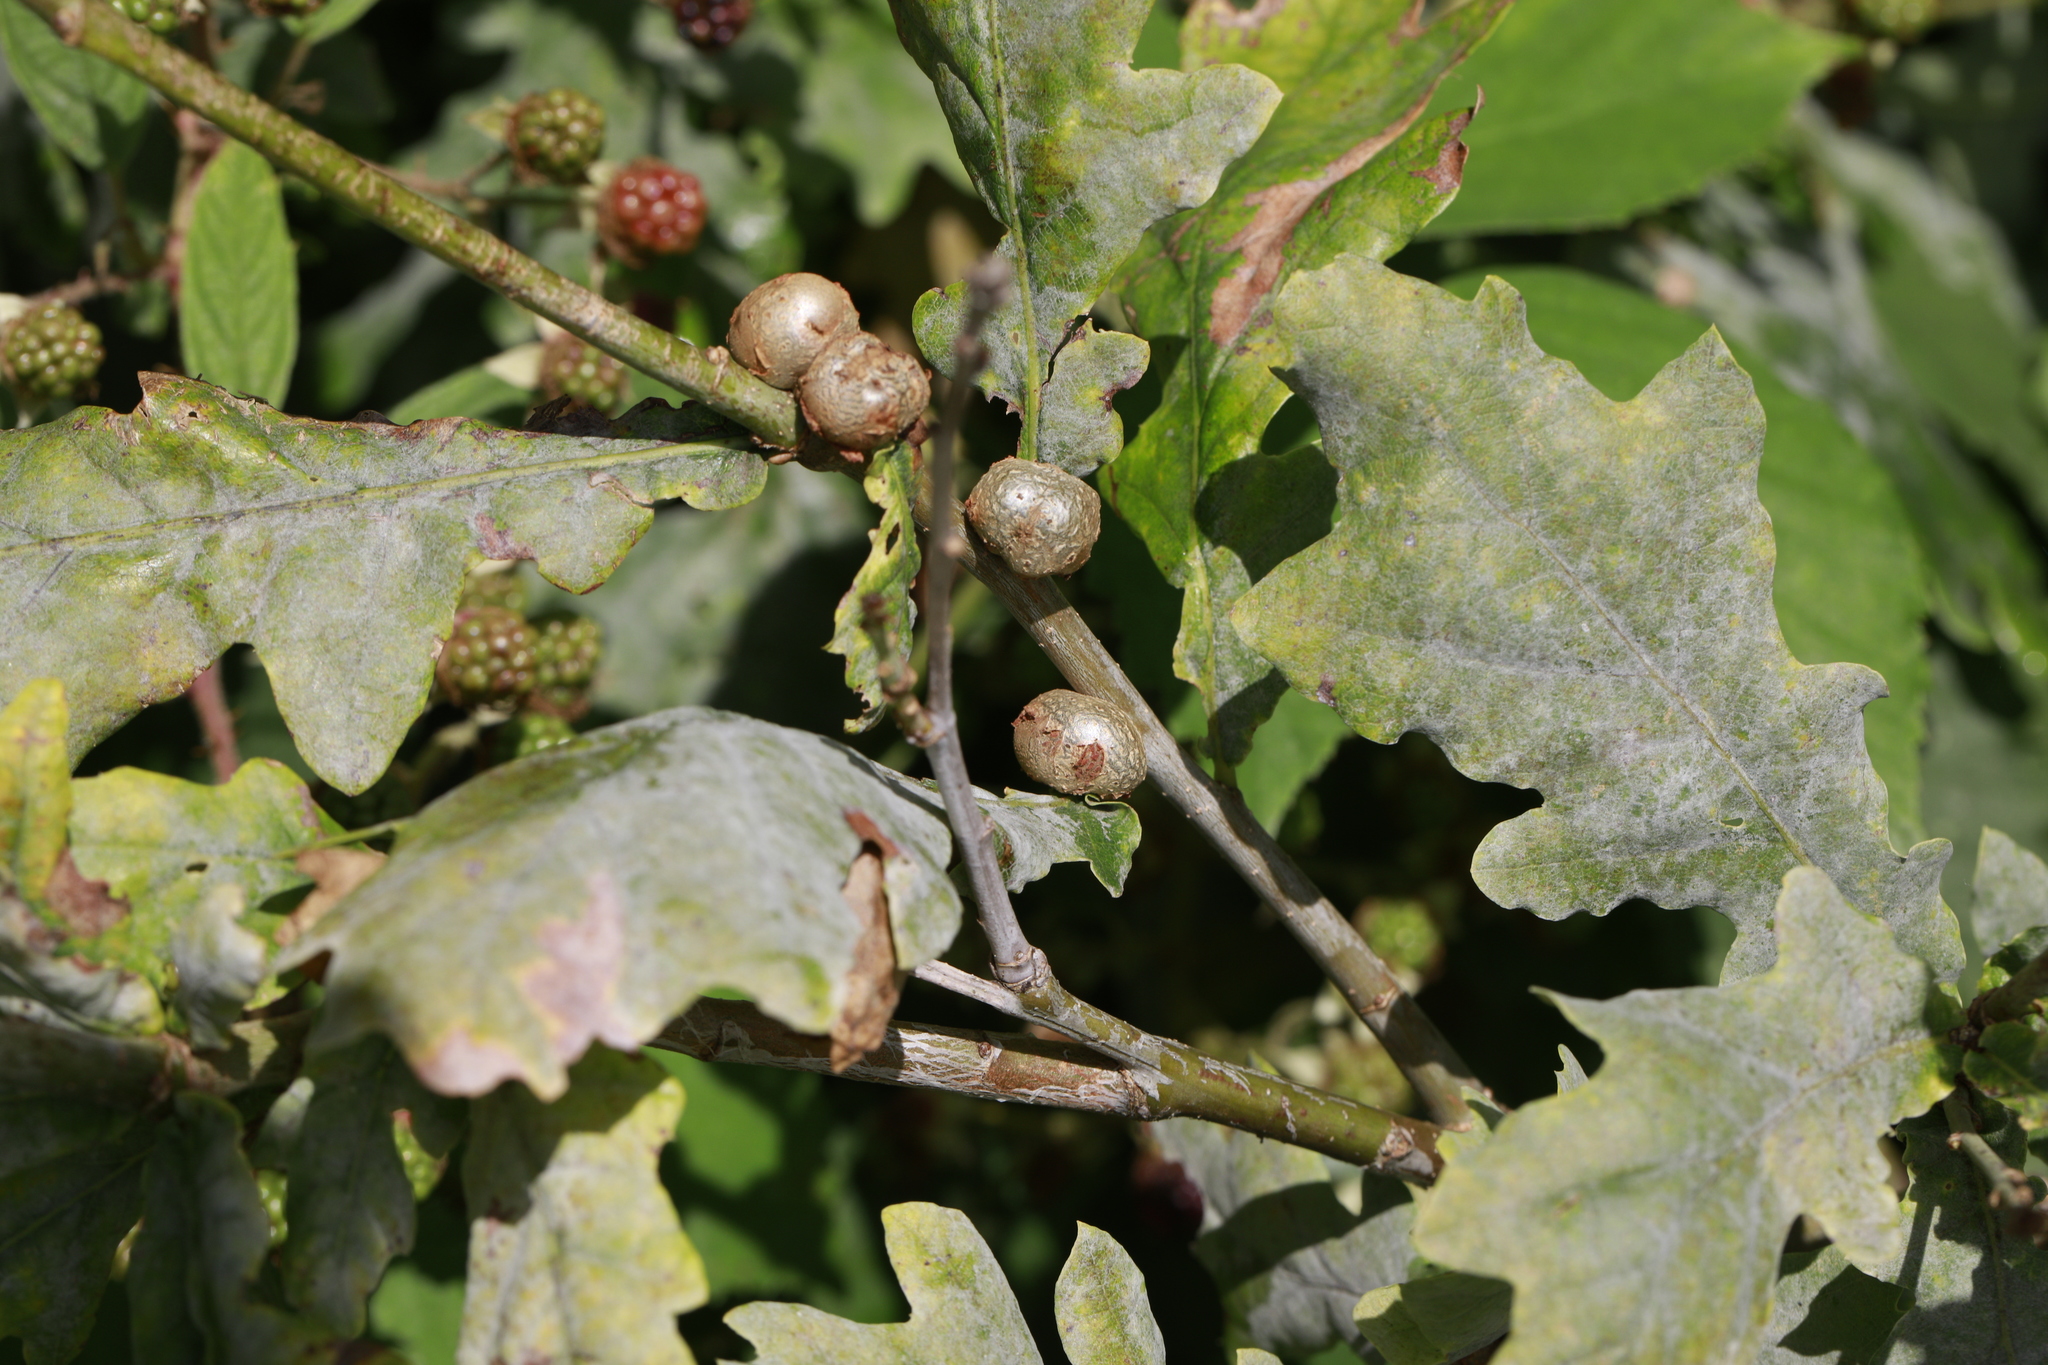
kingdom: Animalia
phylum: Arthropoda
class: Insecta
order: Hymenoptera
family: Cynipidae
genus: Andricus
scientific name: Andricus lignicolus
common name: Cola-nut gall
